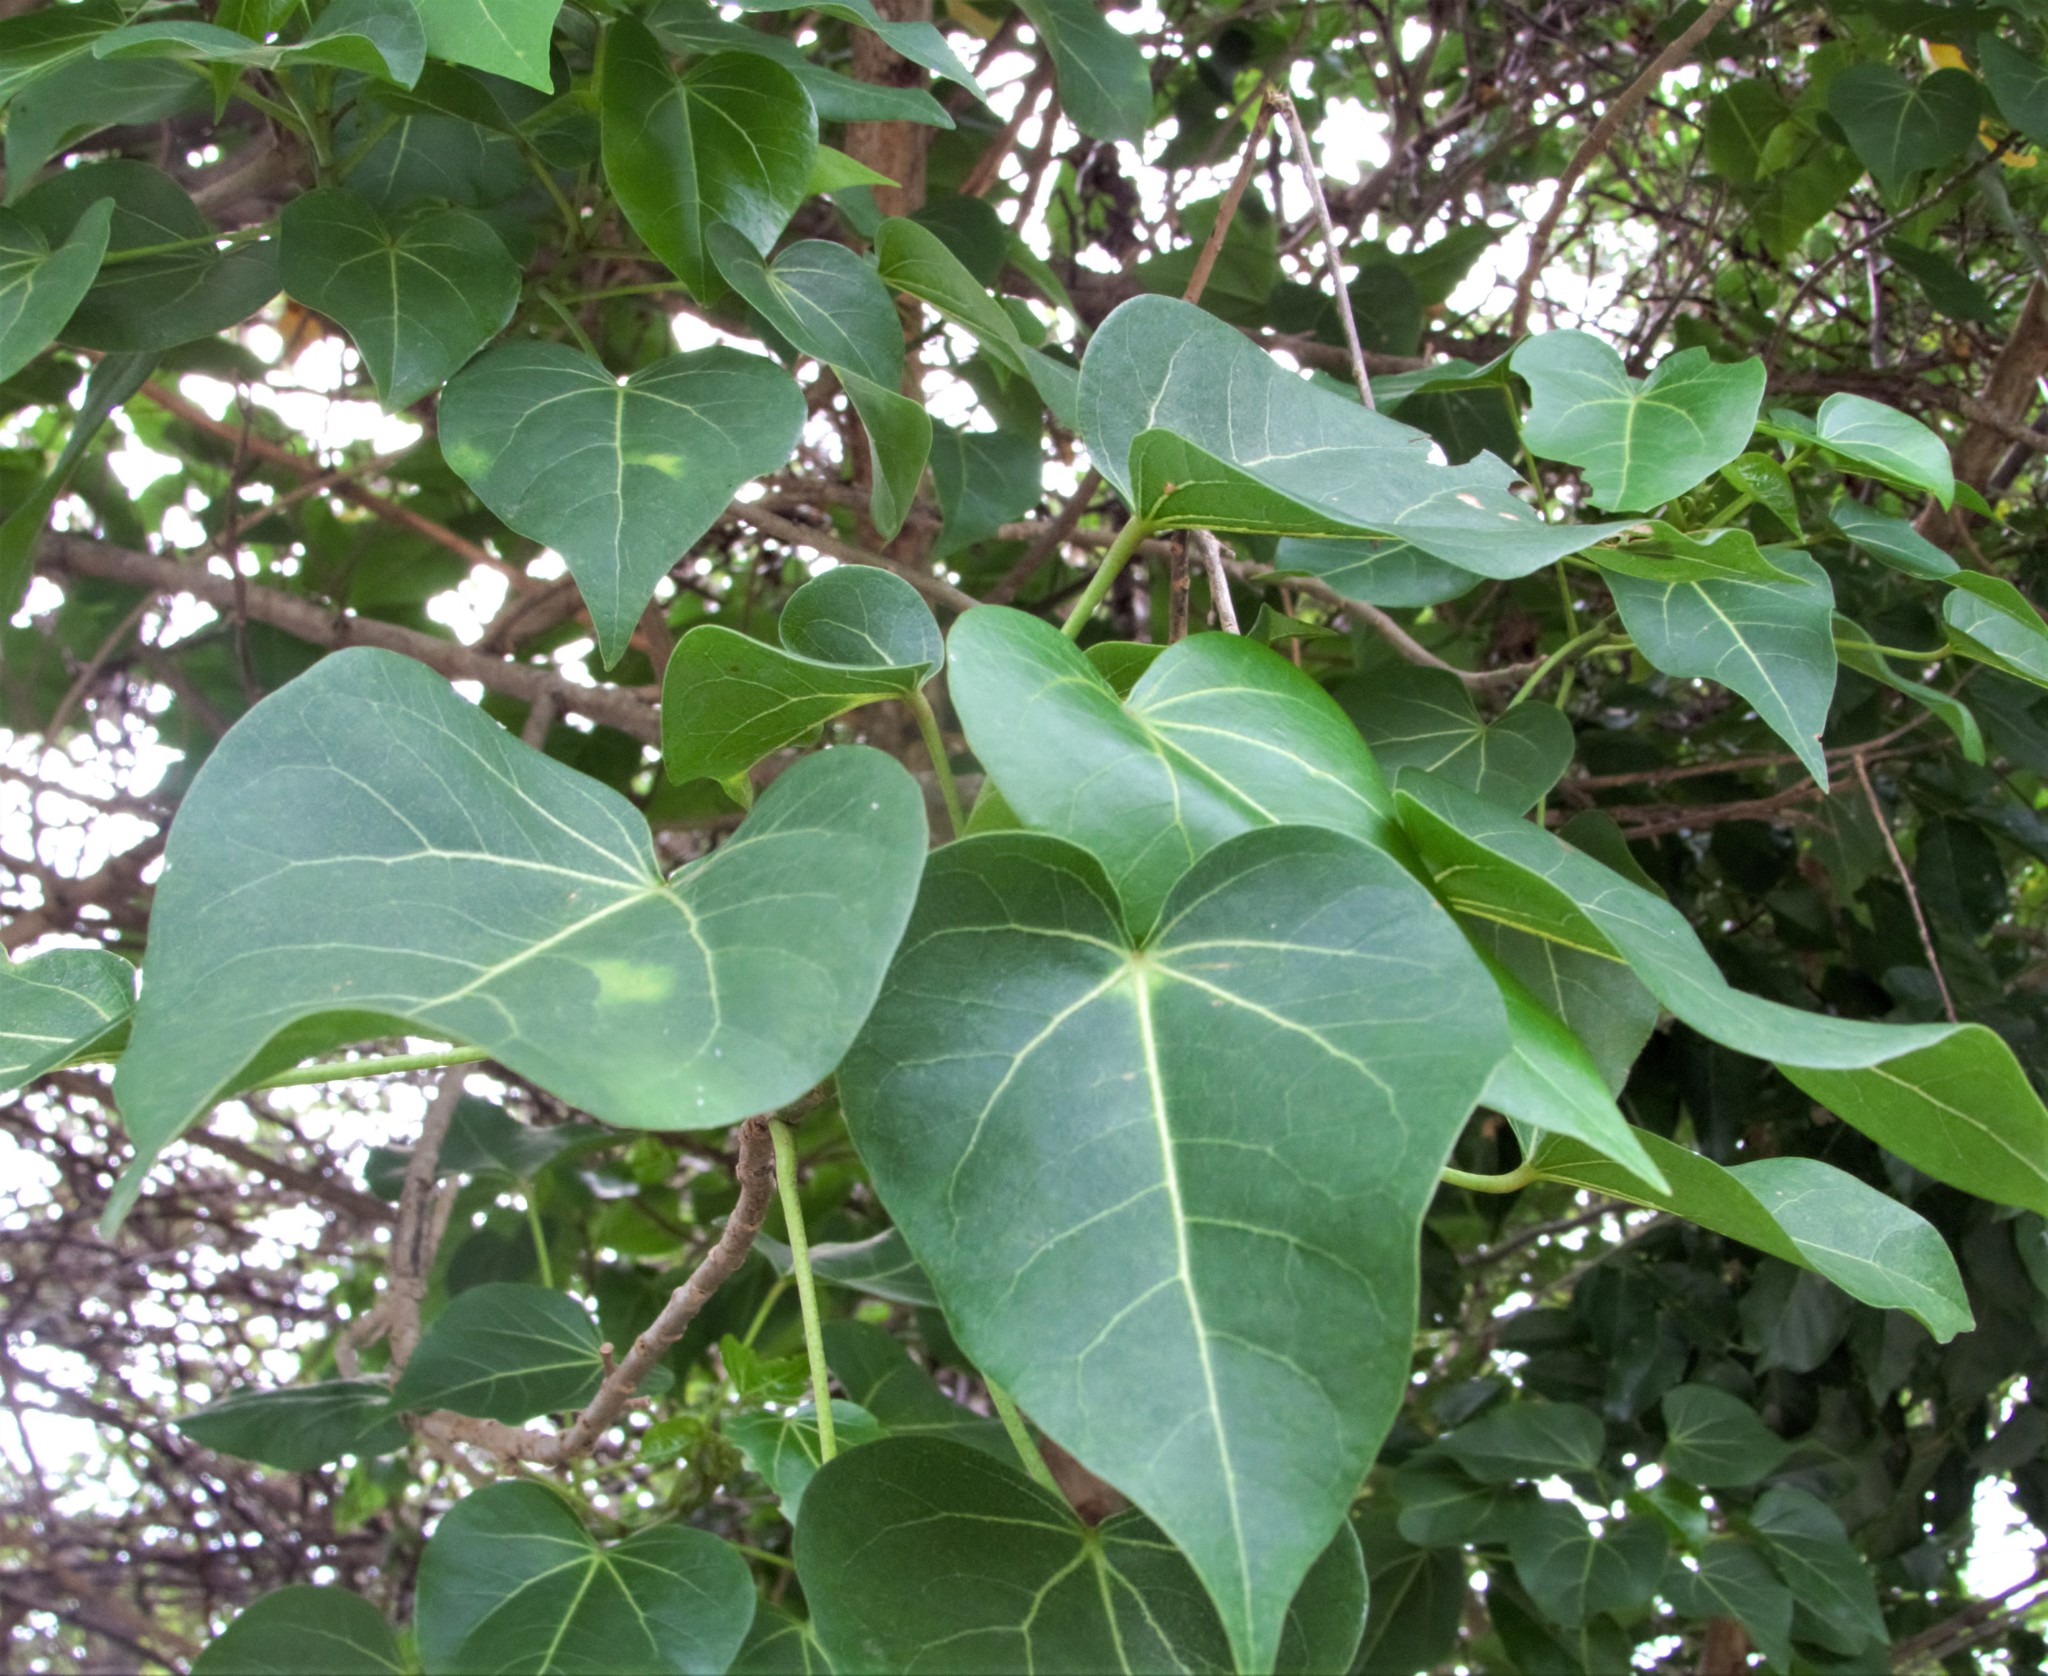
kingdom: Plantae
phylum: Tracheophyta
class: Magnoliopsida
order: Malvales
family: Malvaceae
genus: Thespesia
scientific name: Thespesia populnea
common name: Seaside mahoe
